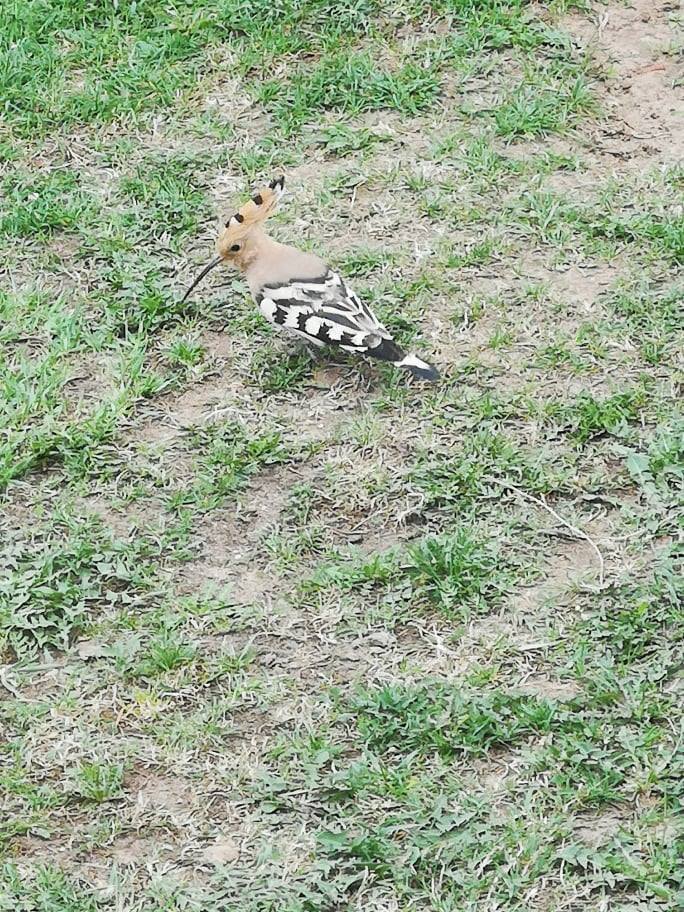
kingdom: Animalia
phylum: Chordata
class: Aves
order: Bucerotiformes
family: Upupidae
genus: Upupa
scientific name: Upupa epops
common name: Eurasian hoopoe
